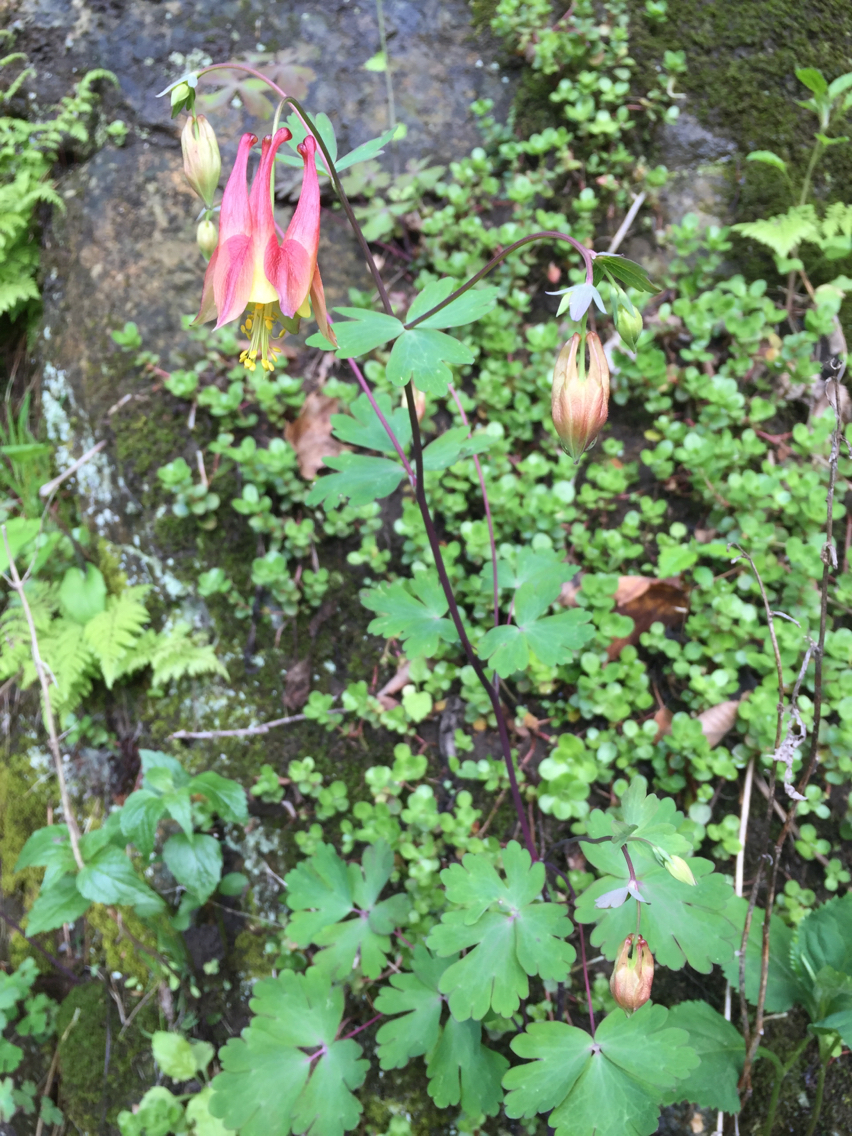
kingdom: Plantae
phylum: Tracheophyta
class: Magnoliopsida
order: Ranunculales
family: Ranunculaceae
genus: Aquilegia
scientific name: Aquilegia canadensis
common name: American columbine
